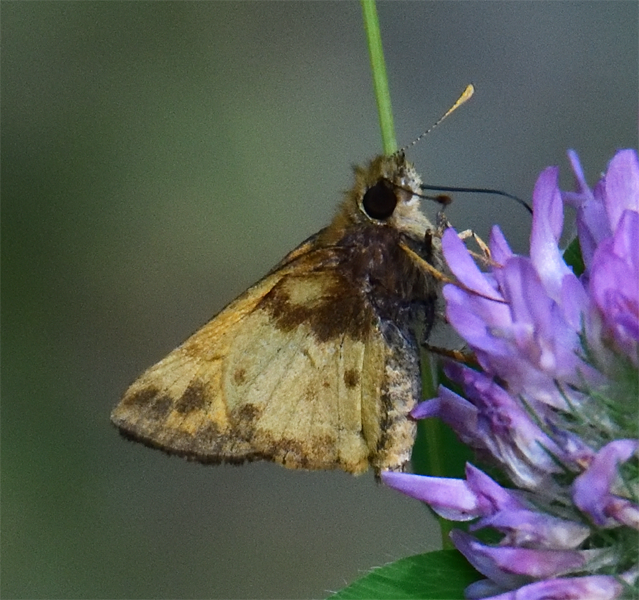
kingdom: Animalia
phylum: Arthropoda
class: Insecta
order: Lepidoptera
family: Hesperiidae
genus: Lon
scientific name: Lon zabulon
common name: Zabulon skipper
